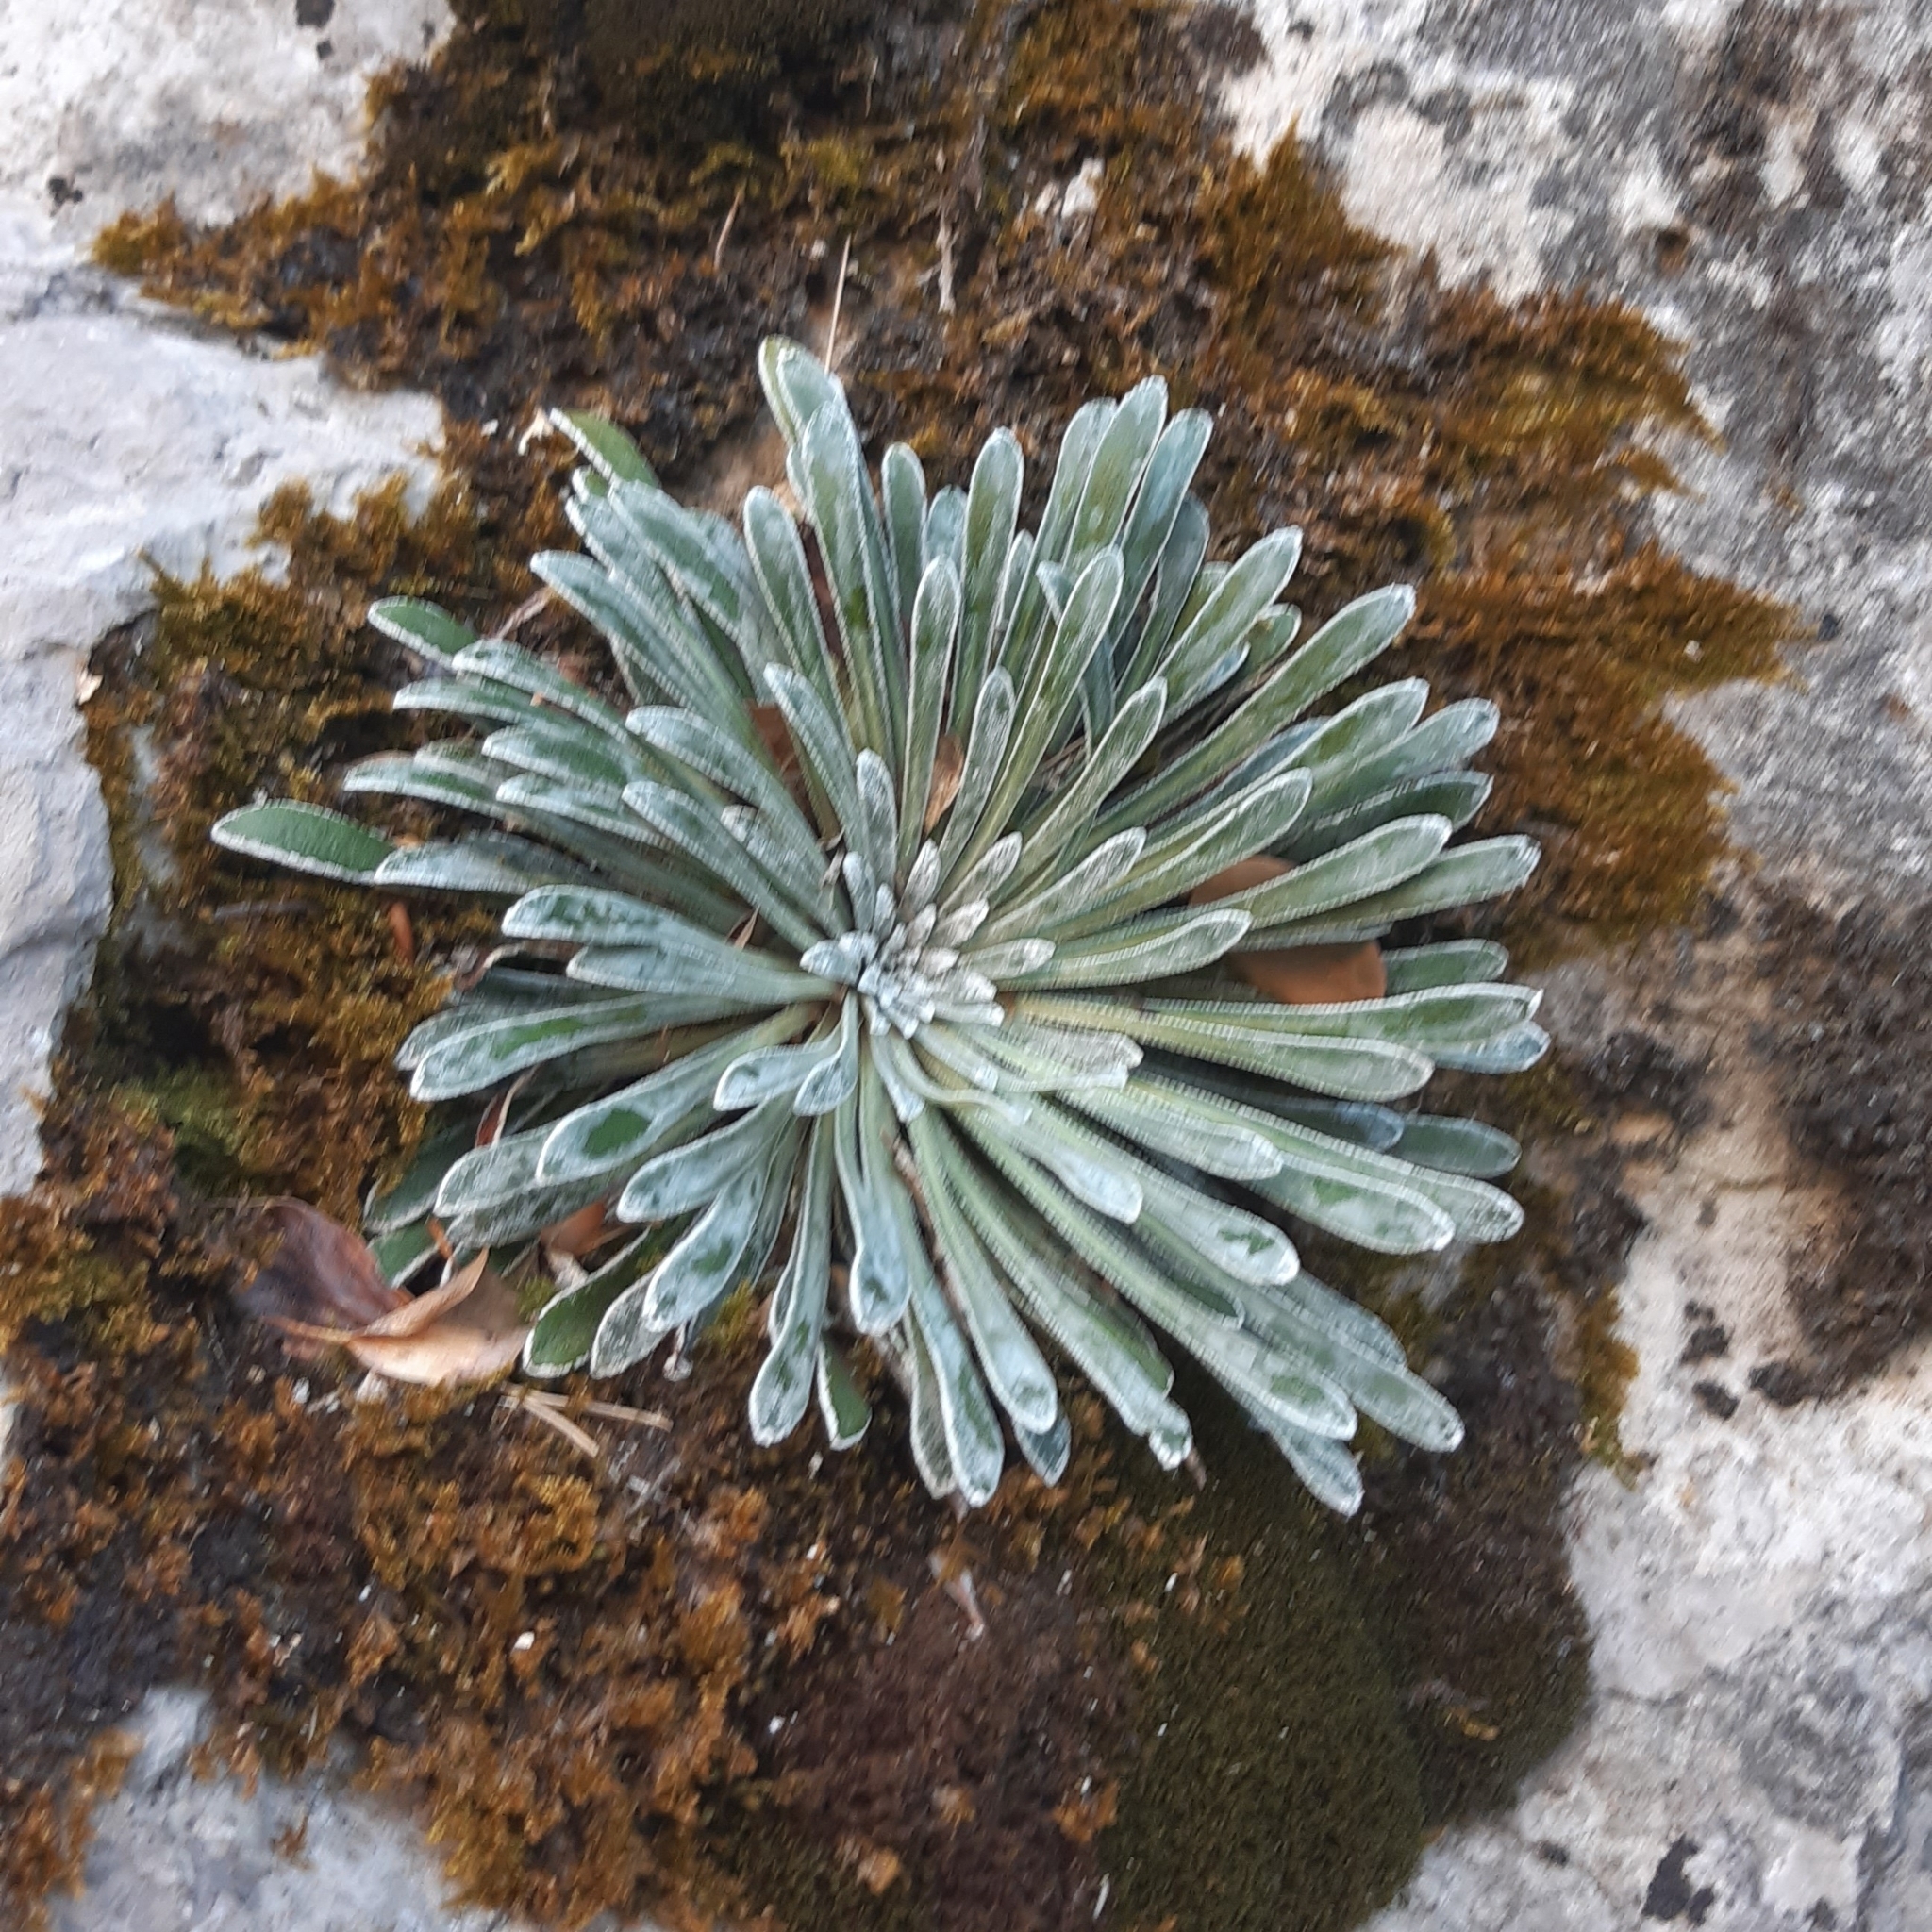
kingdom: Plantae
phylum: Tracheophyta
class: Magnoliopsida
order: Saxifragales
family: Saxifragaceae
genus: Saxifraga
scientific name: Saxifraga longifolia
